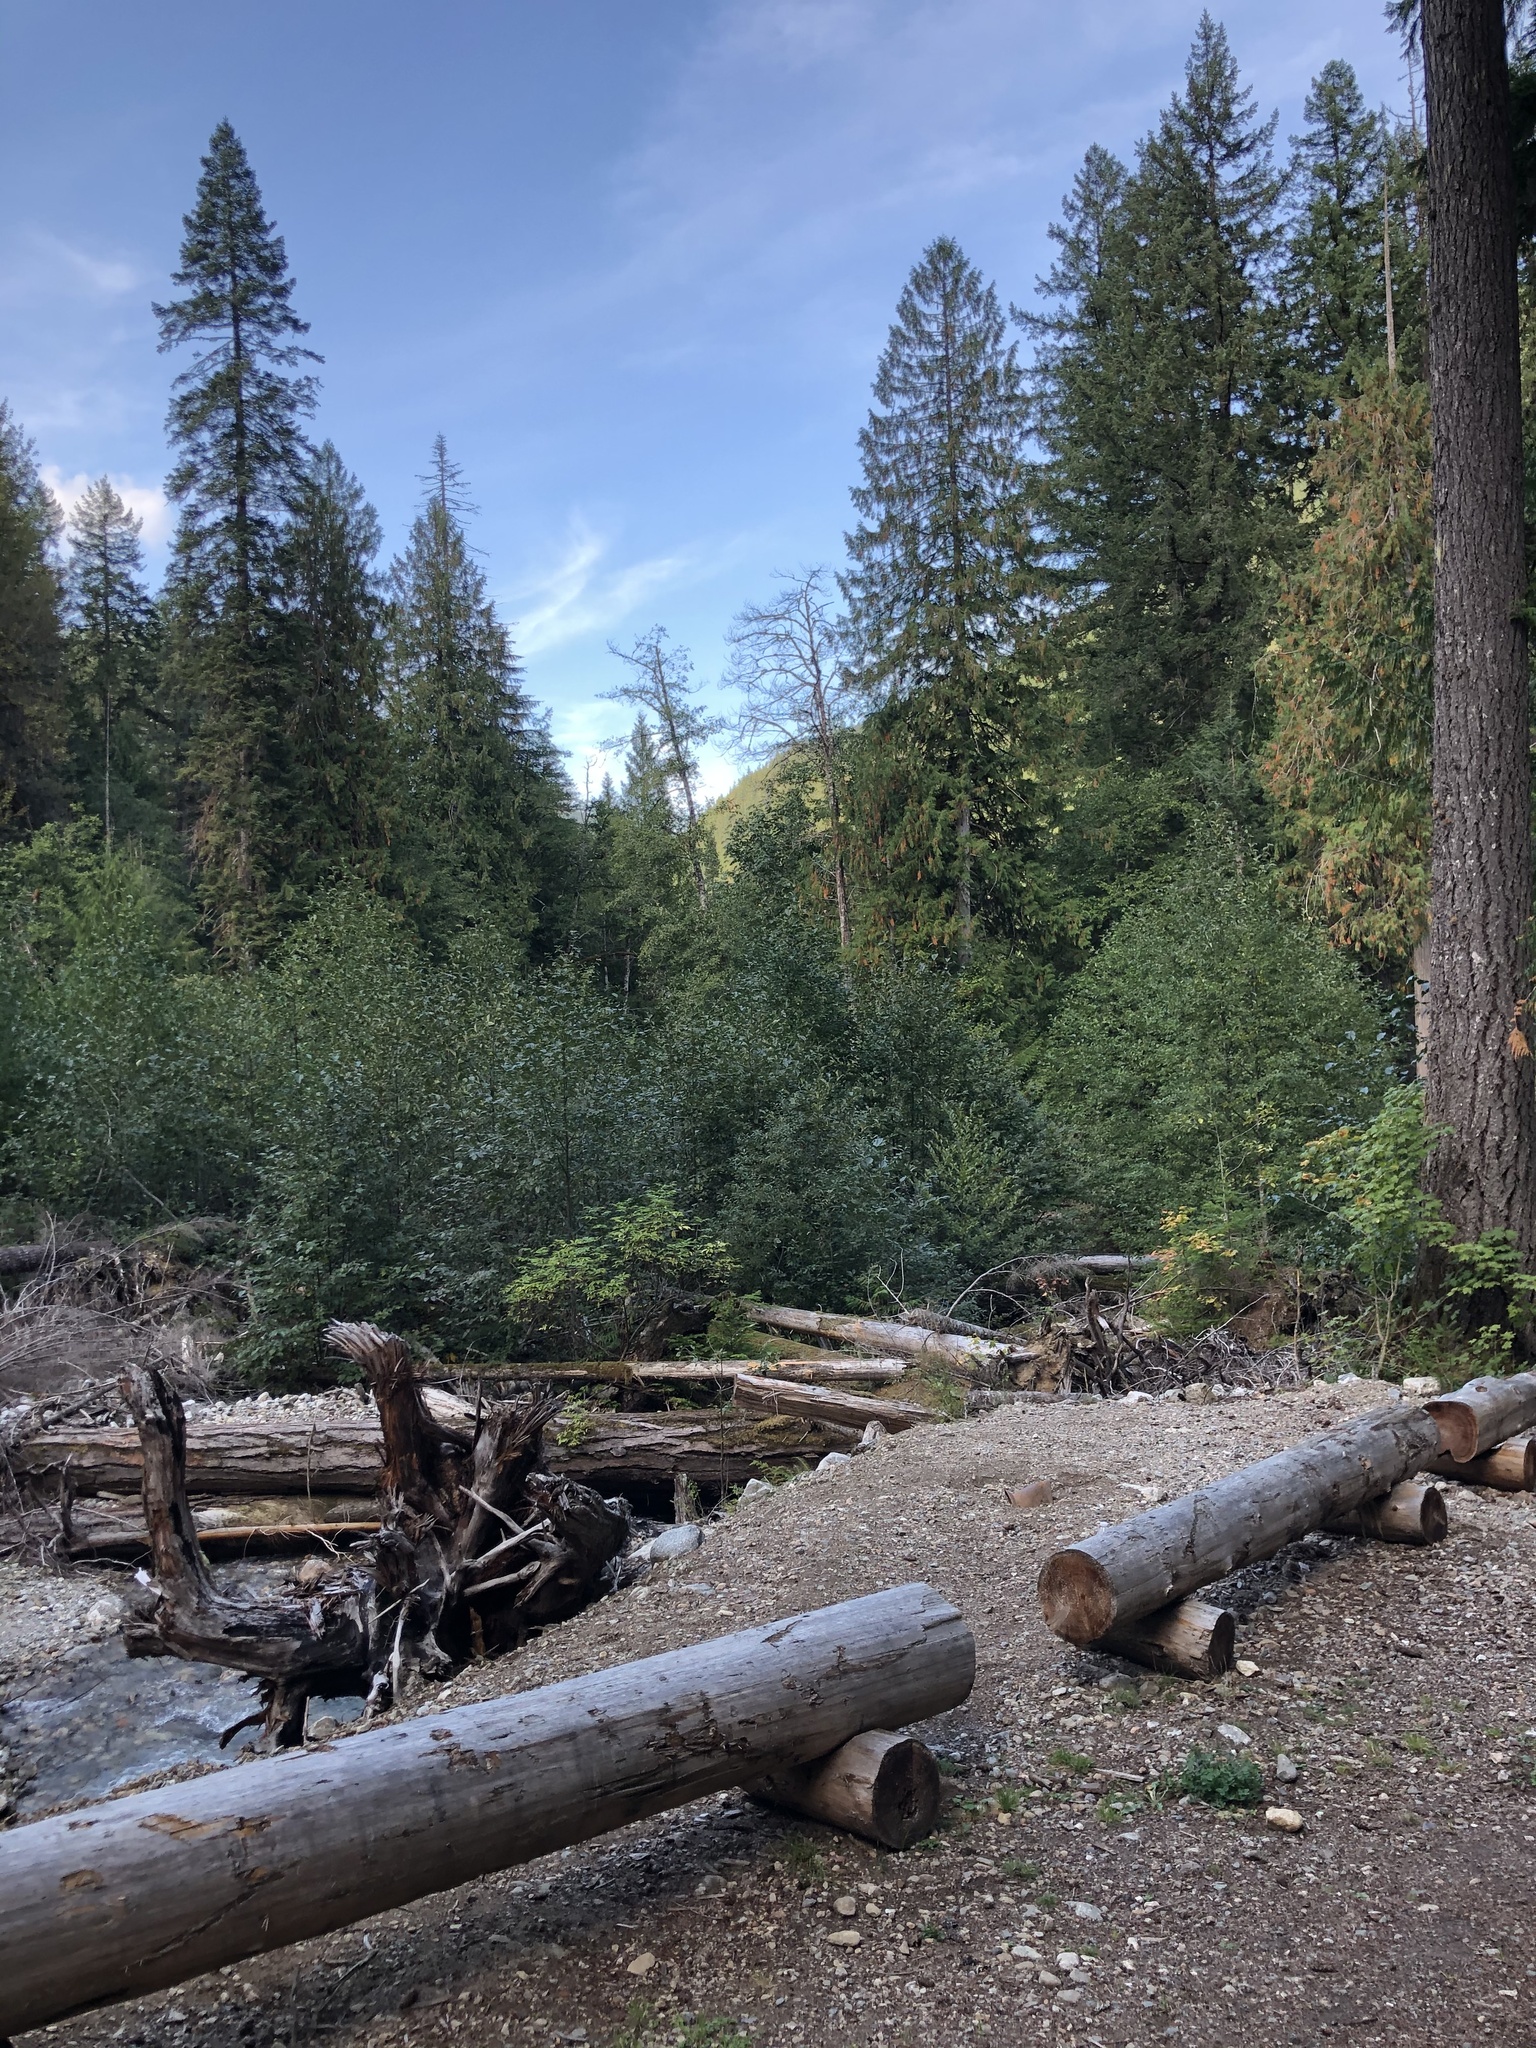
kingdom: Plantae
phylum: Tracheophyta
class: Pinopsida
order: Pinales
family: Pinaceae
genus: Pseudotsuga
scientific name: Pseudotsuga menziesii
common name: Douglas fir
